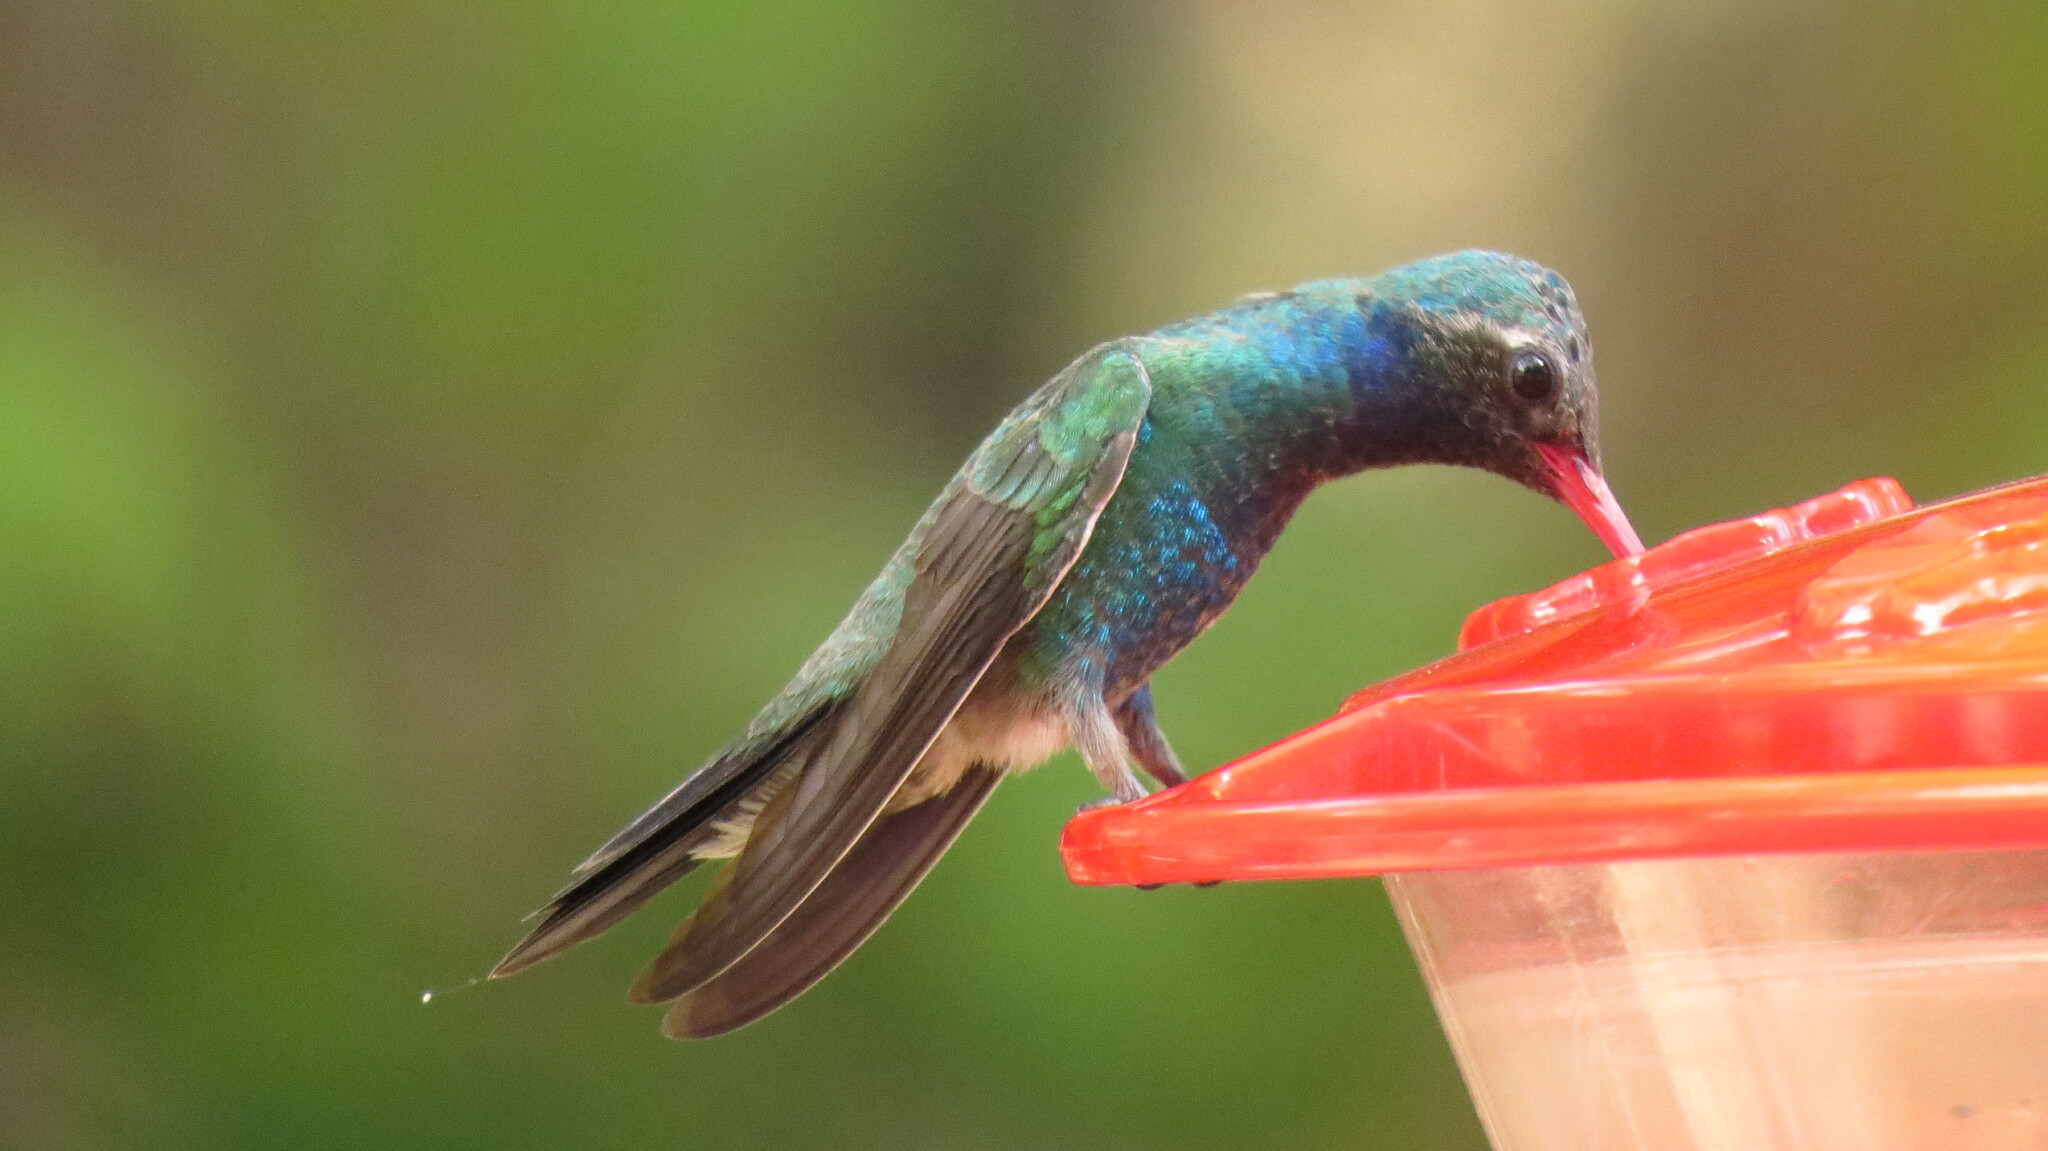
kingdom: Animalia
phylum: Chordata
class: Aves
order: Apodiformes
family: Trochilidae
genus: Cynanthus
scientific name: Cynanthus latirostris
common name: Broad-billed hummingbird
